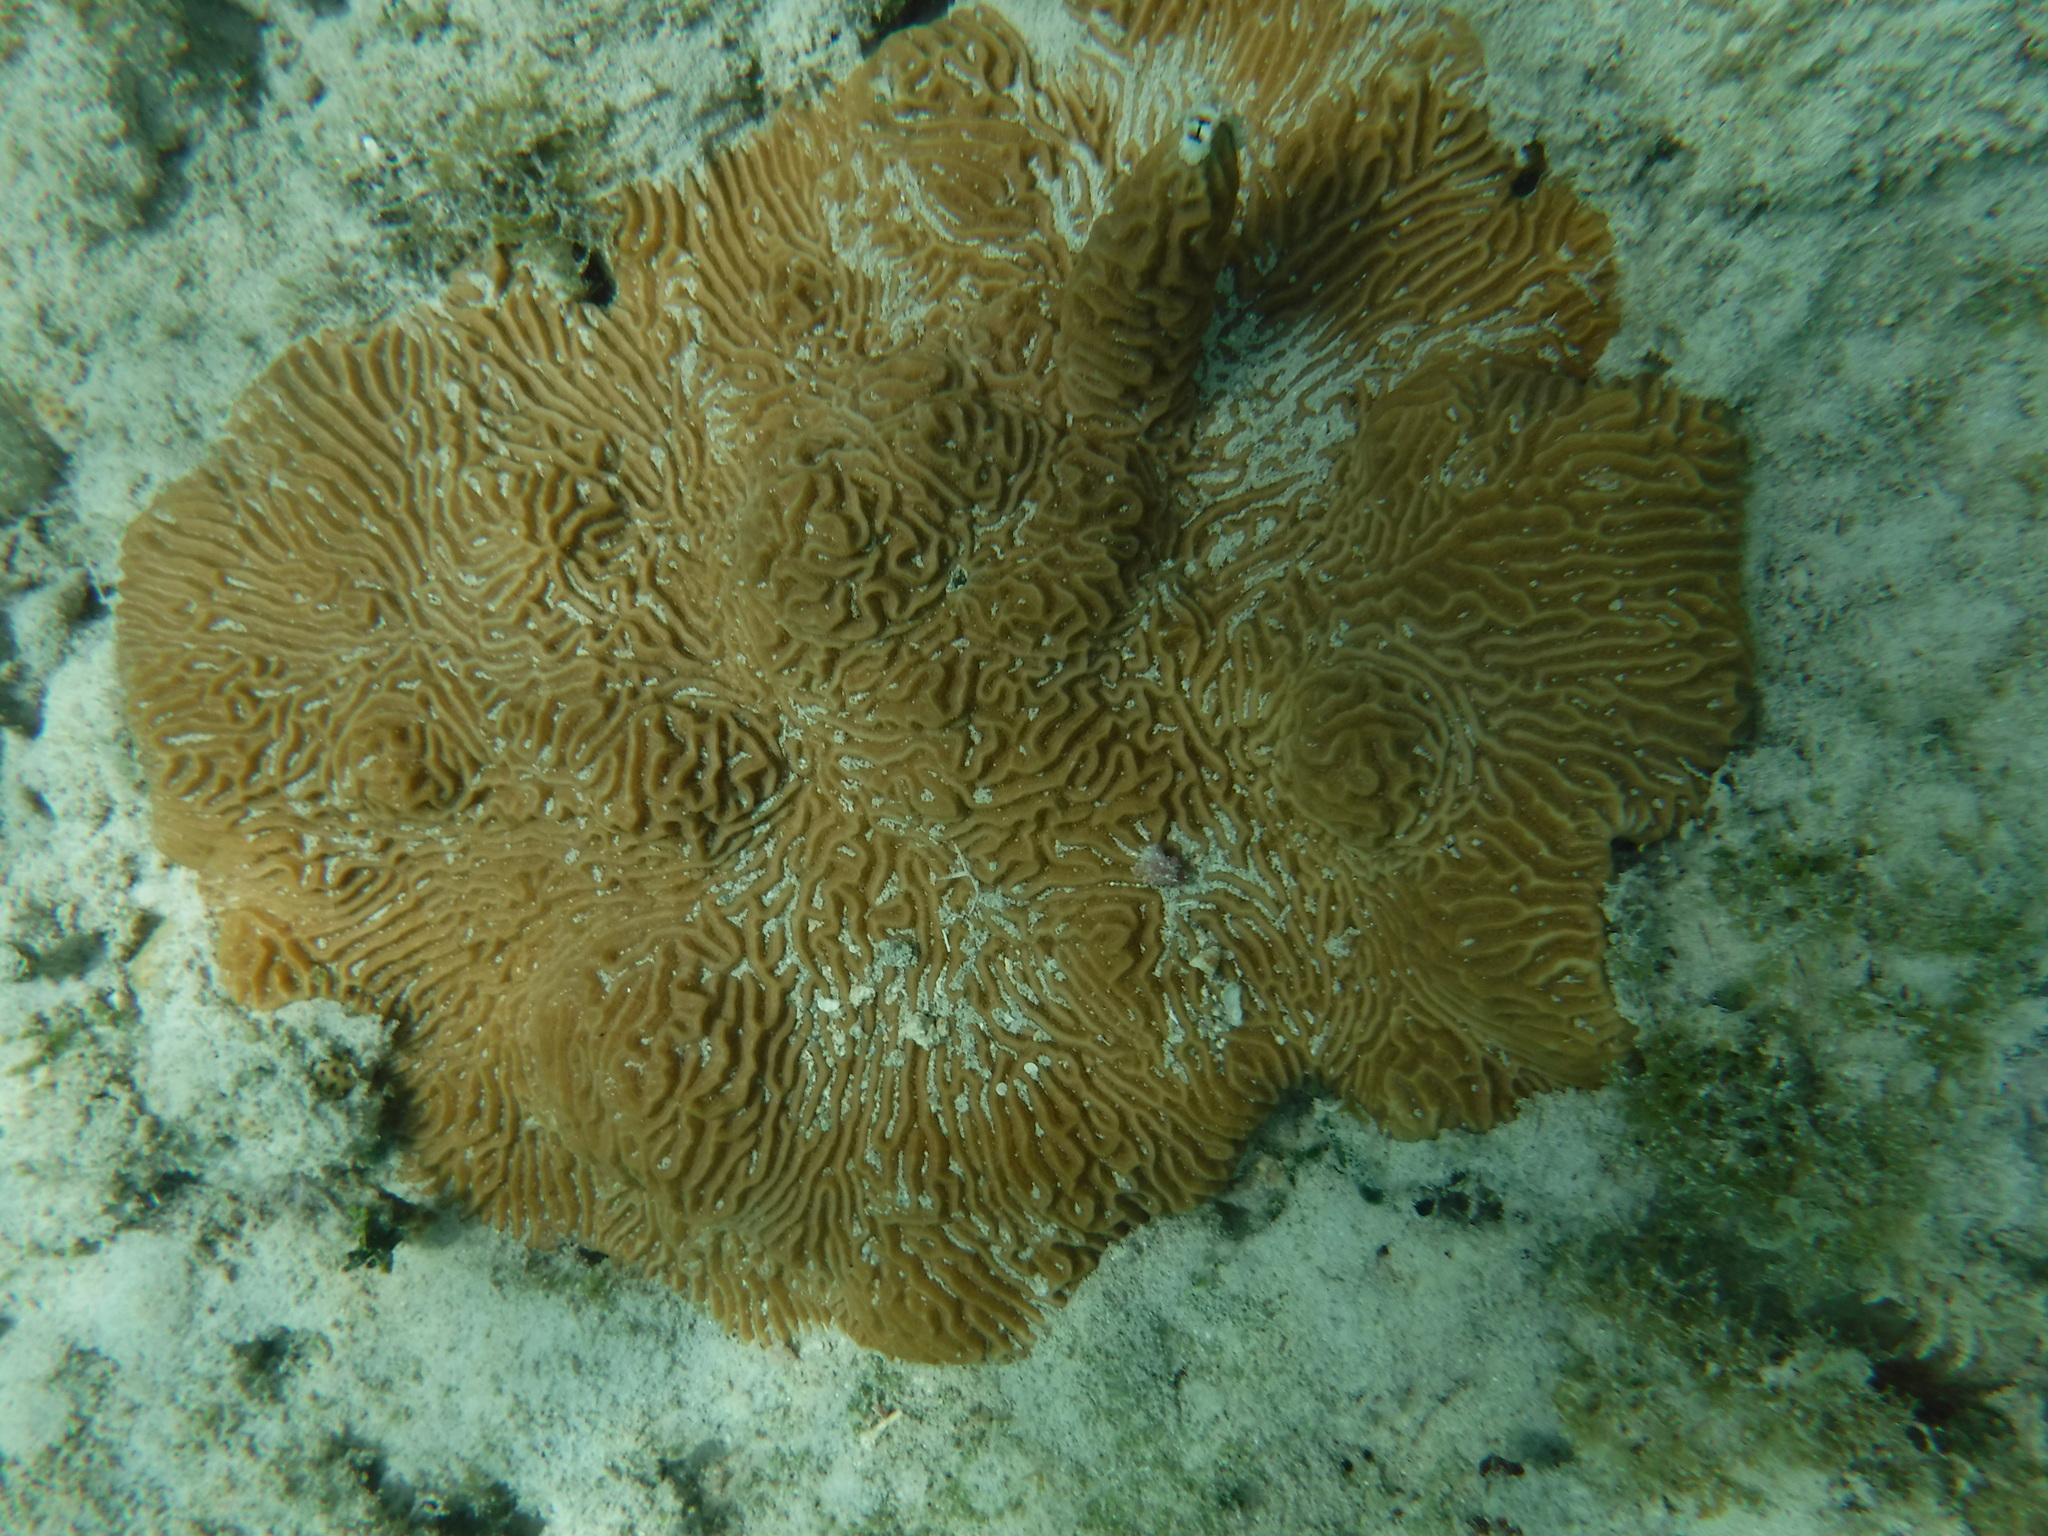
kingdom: Animalia
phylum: Cnidaria
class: Anthozoa
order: Scleractinia
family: Faviidae
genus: Pseudodiploria
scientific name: Pseudodiploria clivosa
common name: Knobby brain coral
